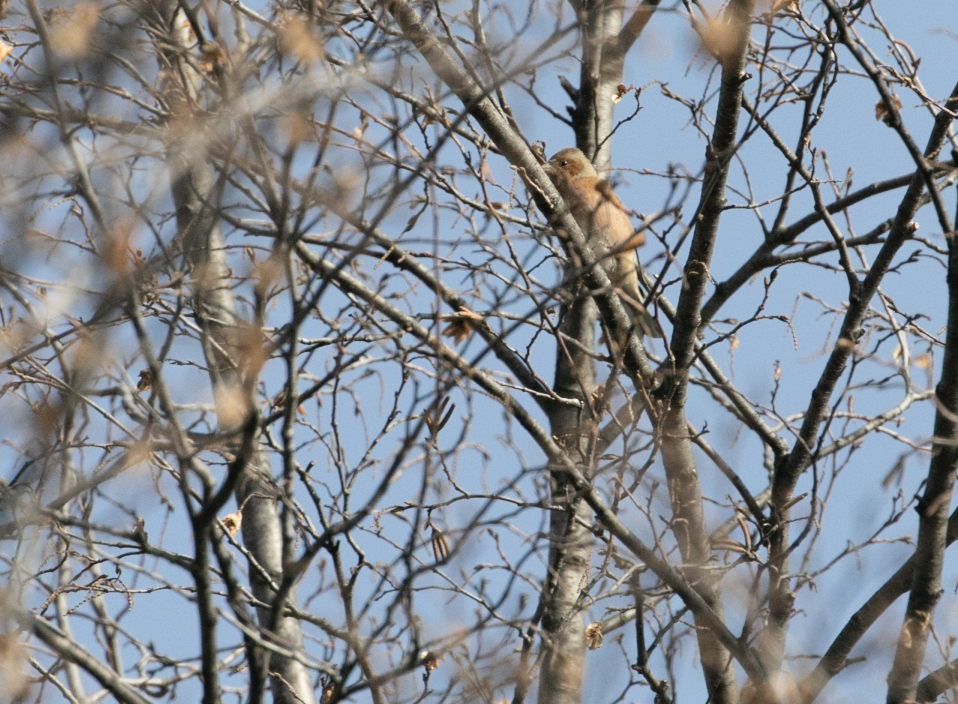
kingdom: Animalia
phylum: Chordata
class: Aves
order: Passeriformes
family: Fringillidae
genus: Fringilla
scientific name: Fringilla coelebs
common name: Common chaffinch
